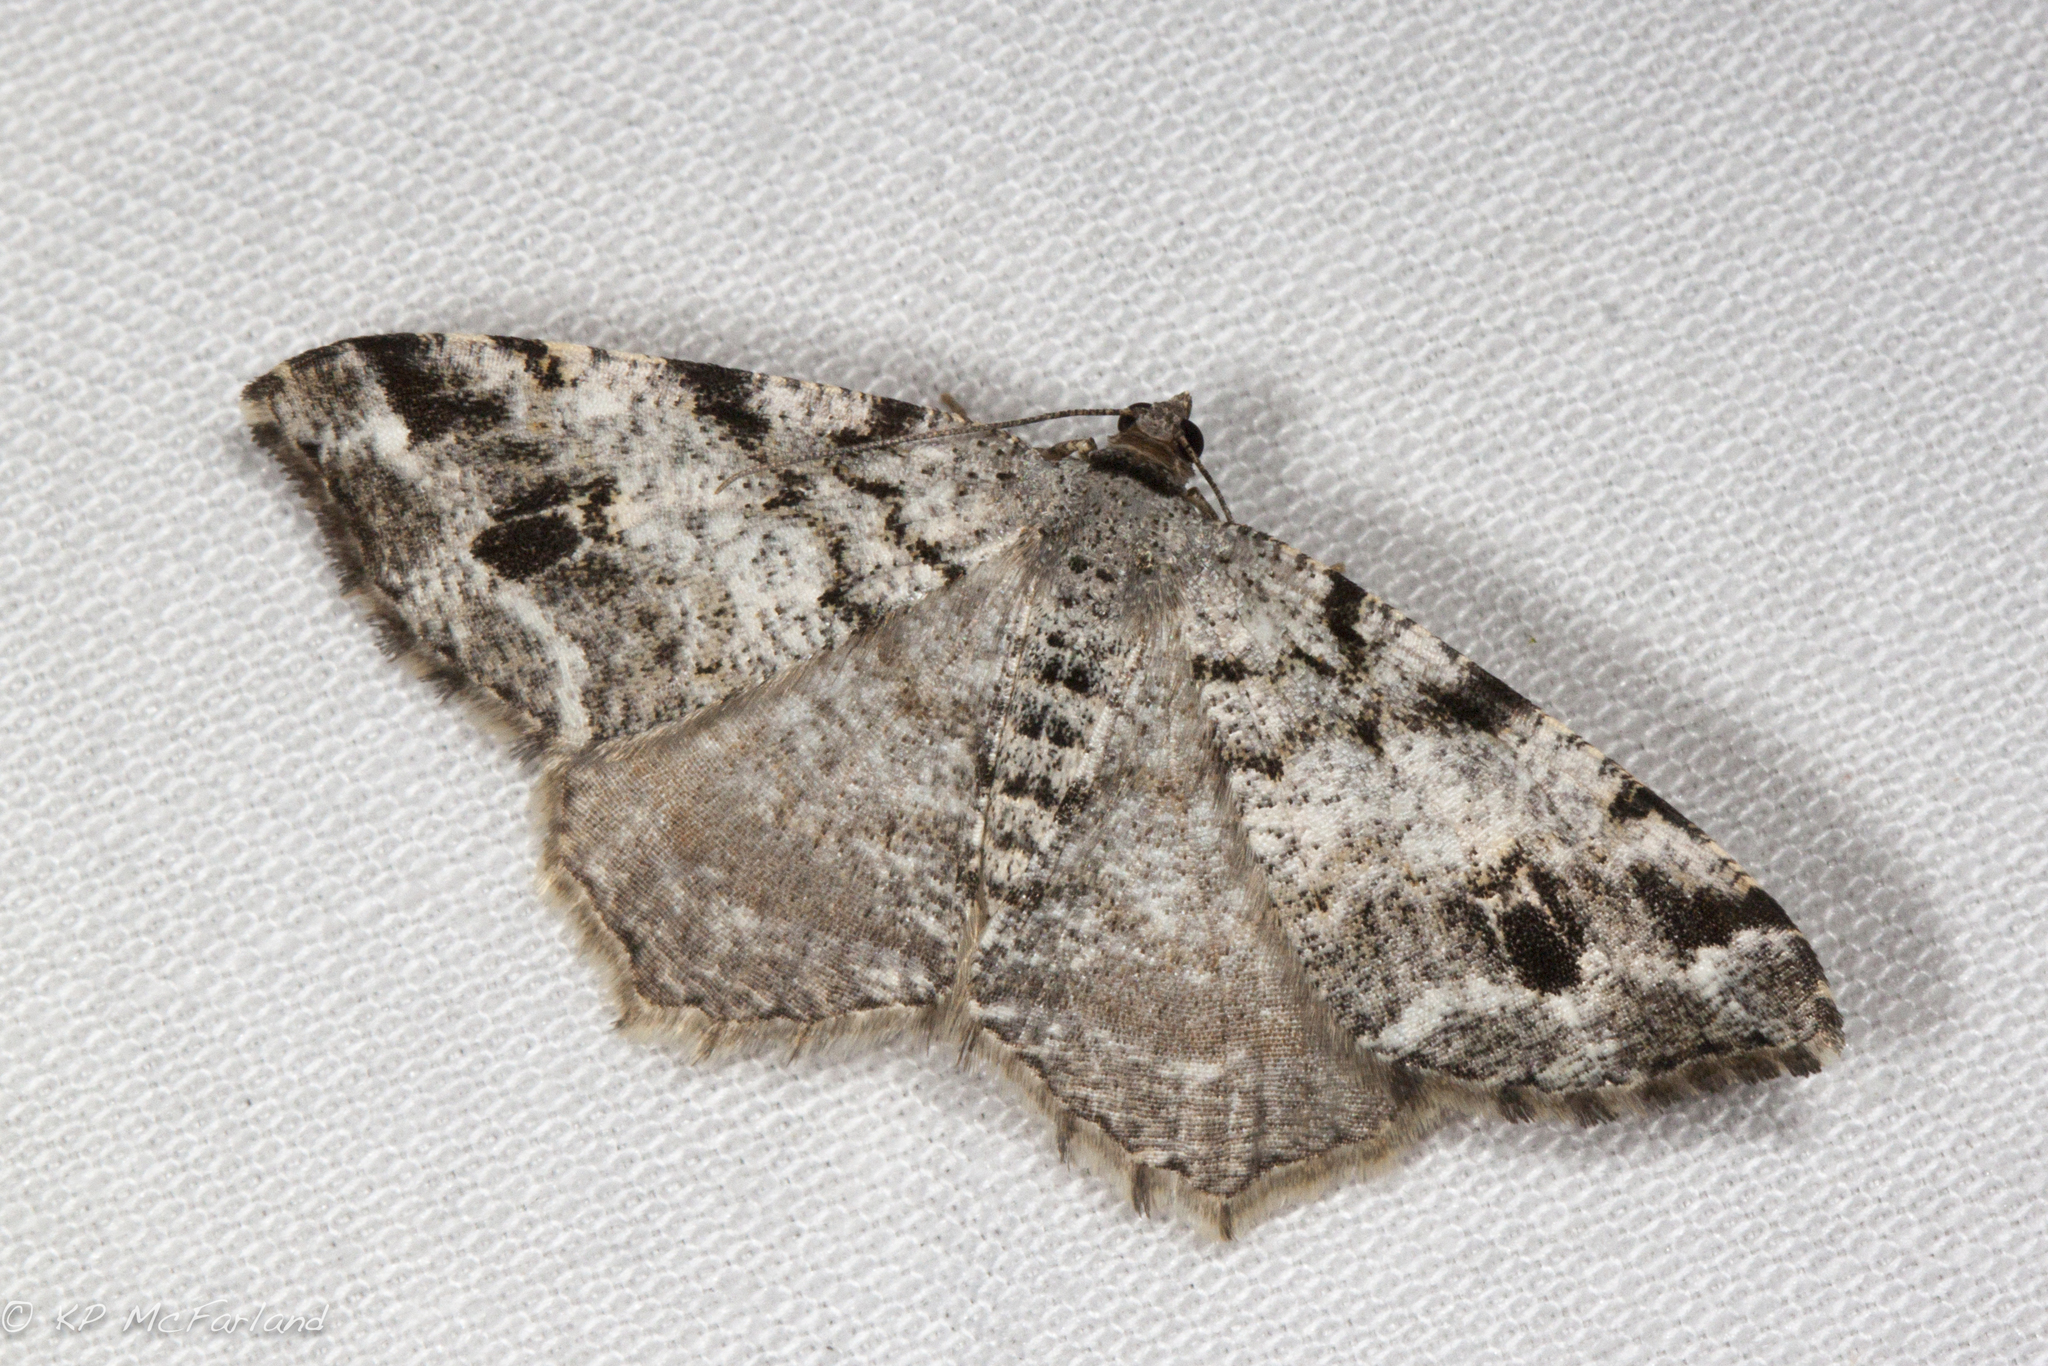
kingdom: Animalia
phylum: Arthropoda
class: Insecta
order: Lepidoptera
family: Geometridae
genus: Macaria
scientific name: Macaria pinistrobata
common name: White pine angle
